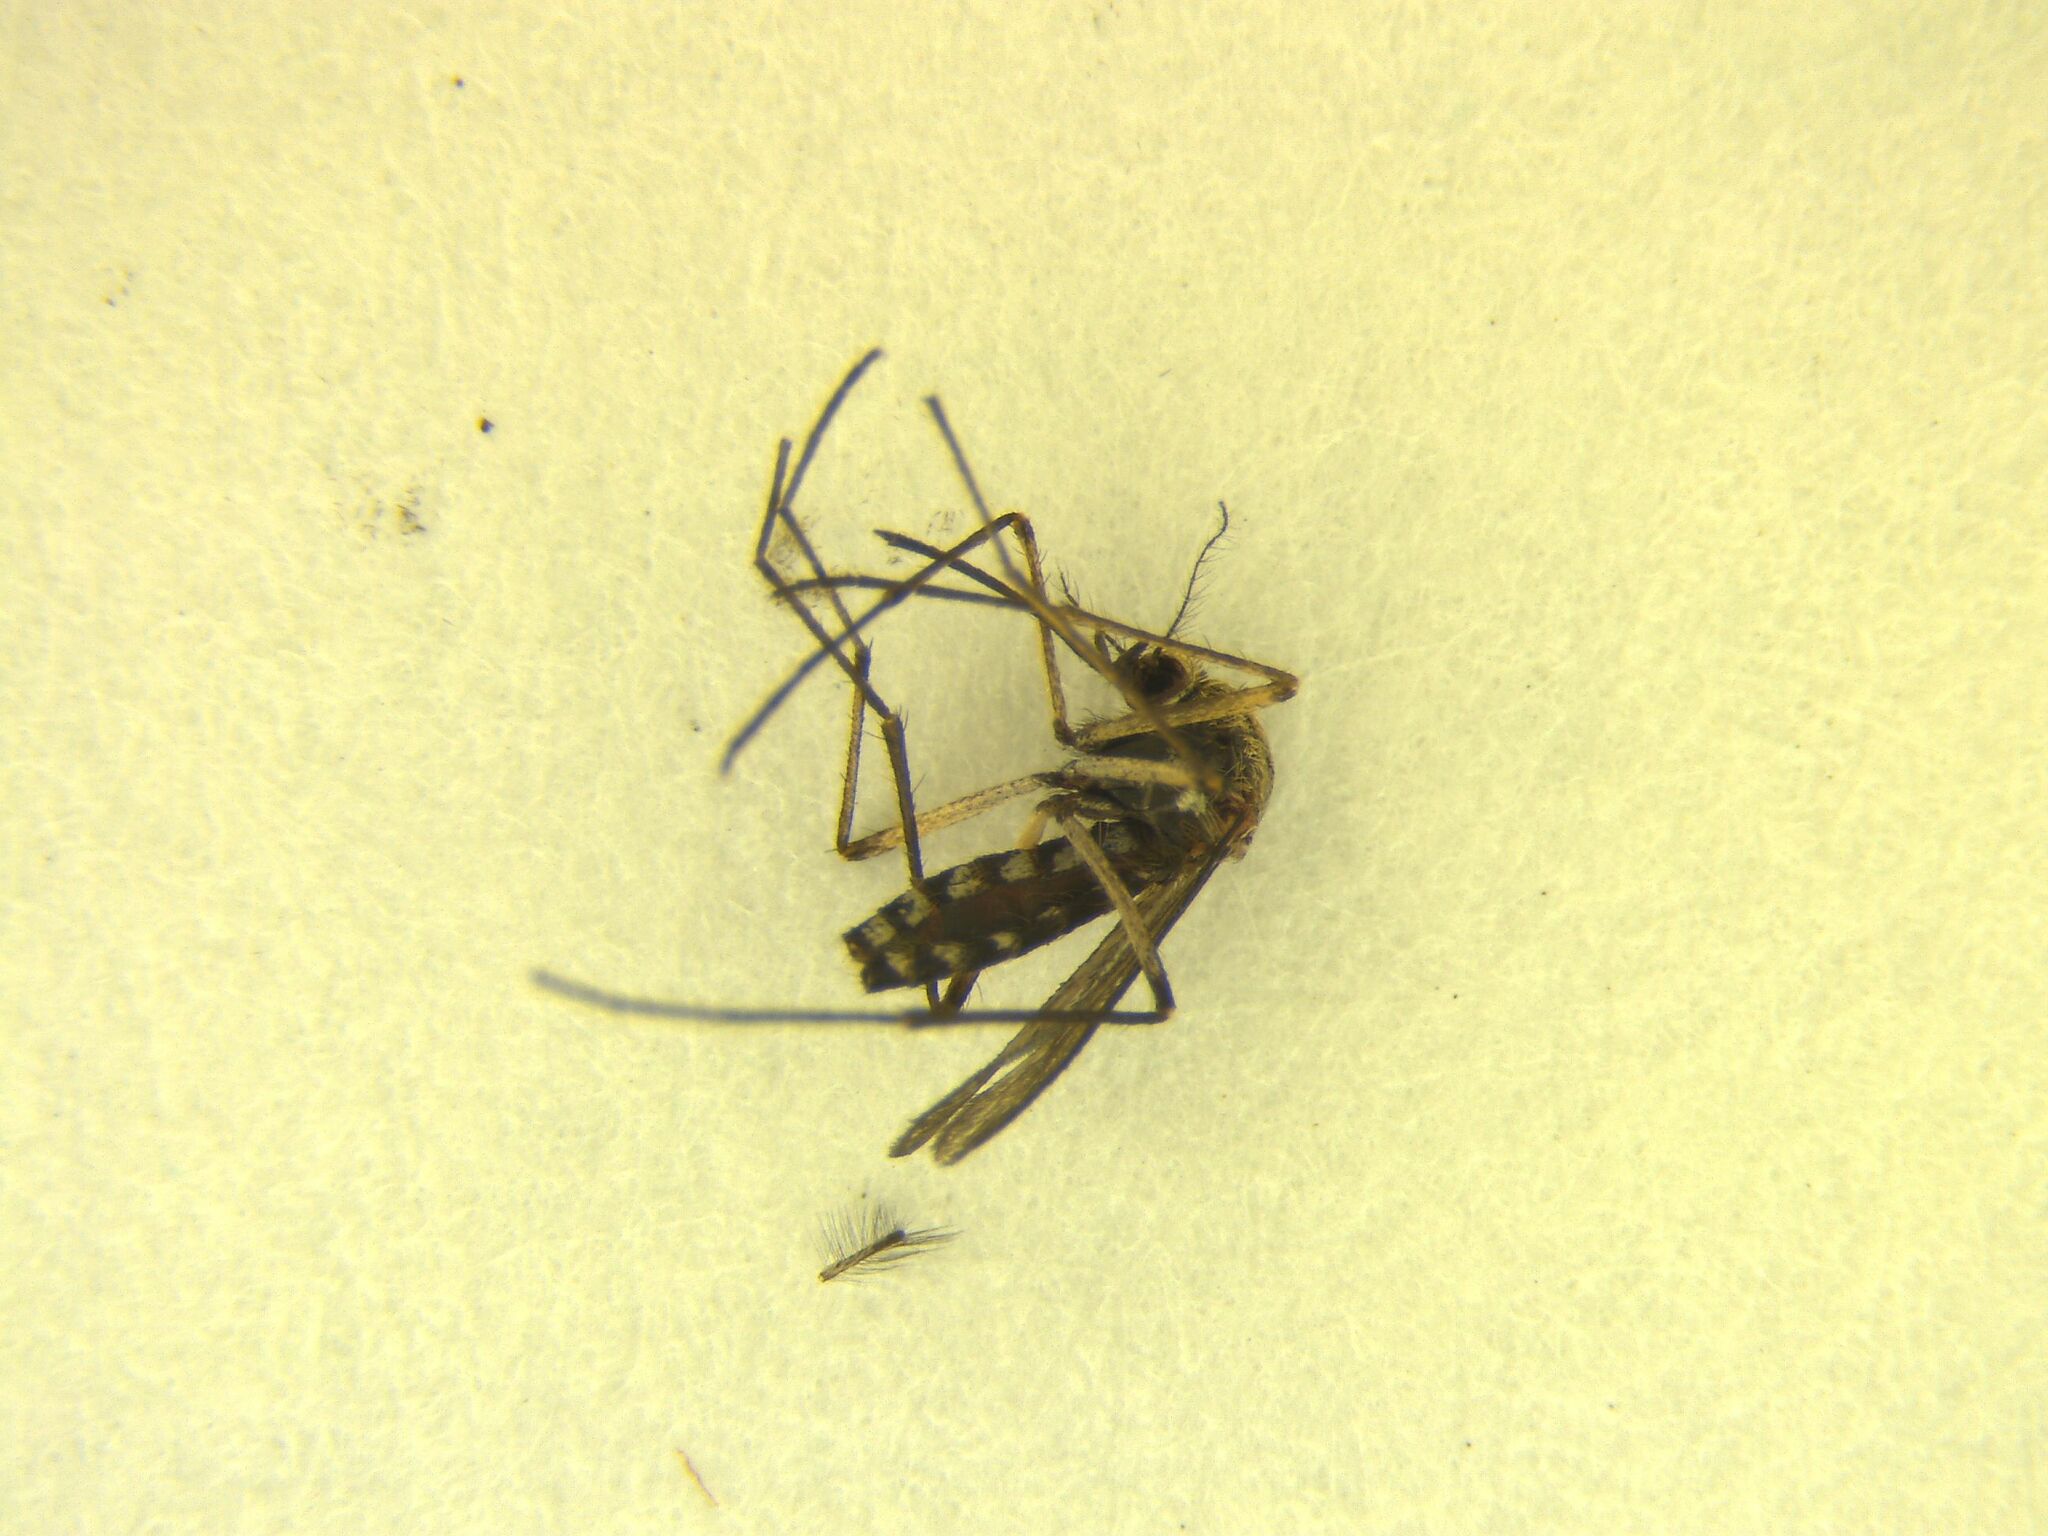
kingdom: Animalia
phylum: Arthropoda
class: Insecta
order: Diptera
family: Culicidae
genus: Coquillettidia
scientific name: Coquillettidia iracunda
